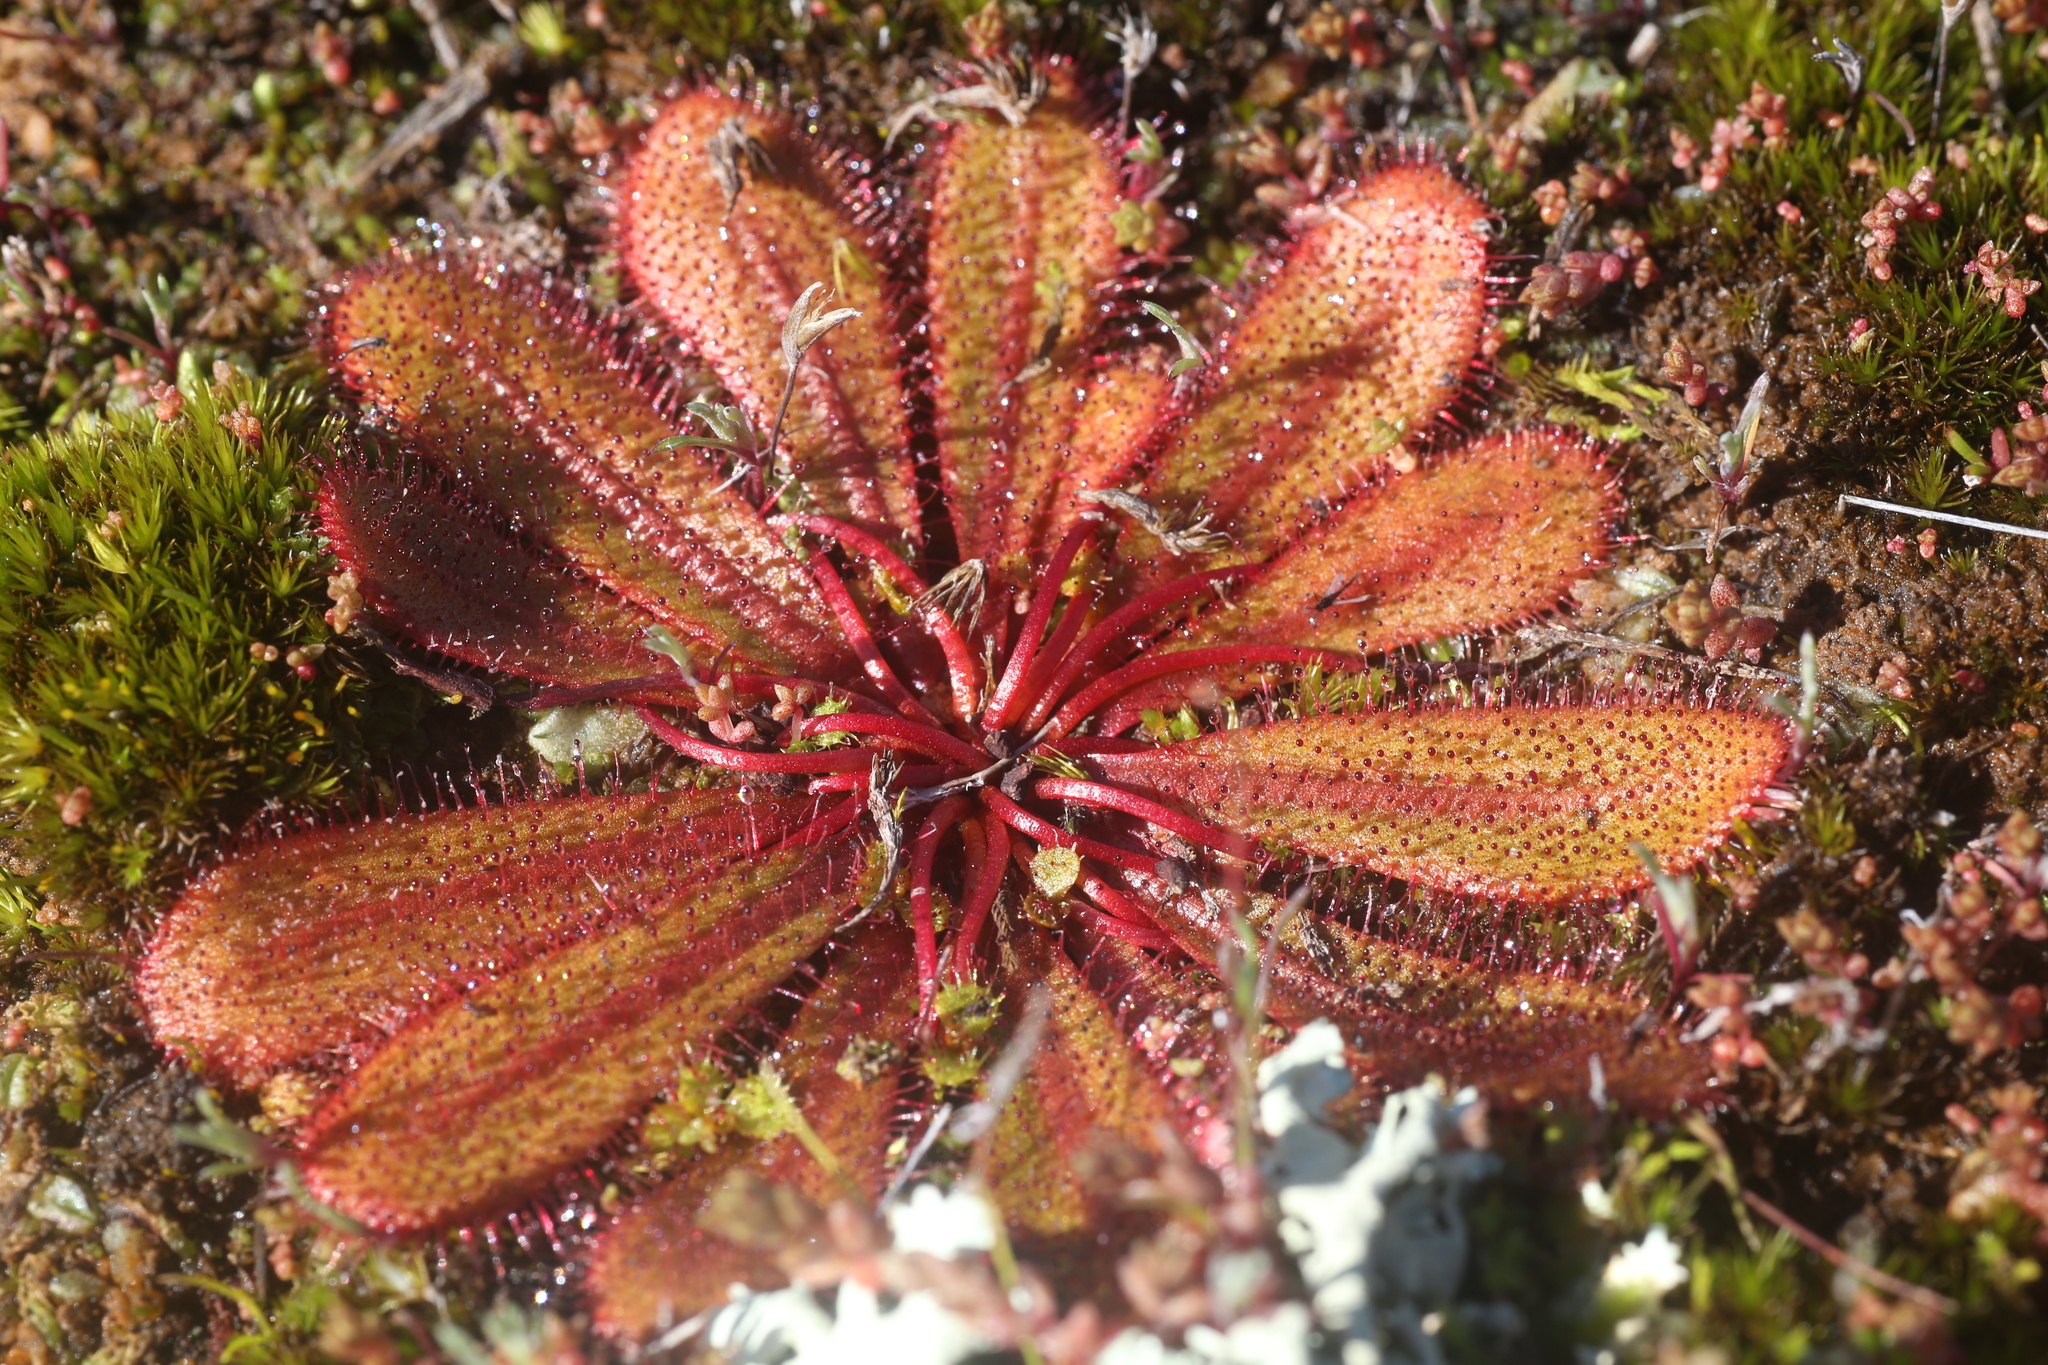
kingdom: Plantae
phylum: Tracheophyta
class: Magnoliopsida
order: Caryophyllales
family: Droseraceae
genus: Drosera
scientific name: Drosera bulbosa
